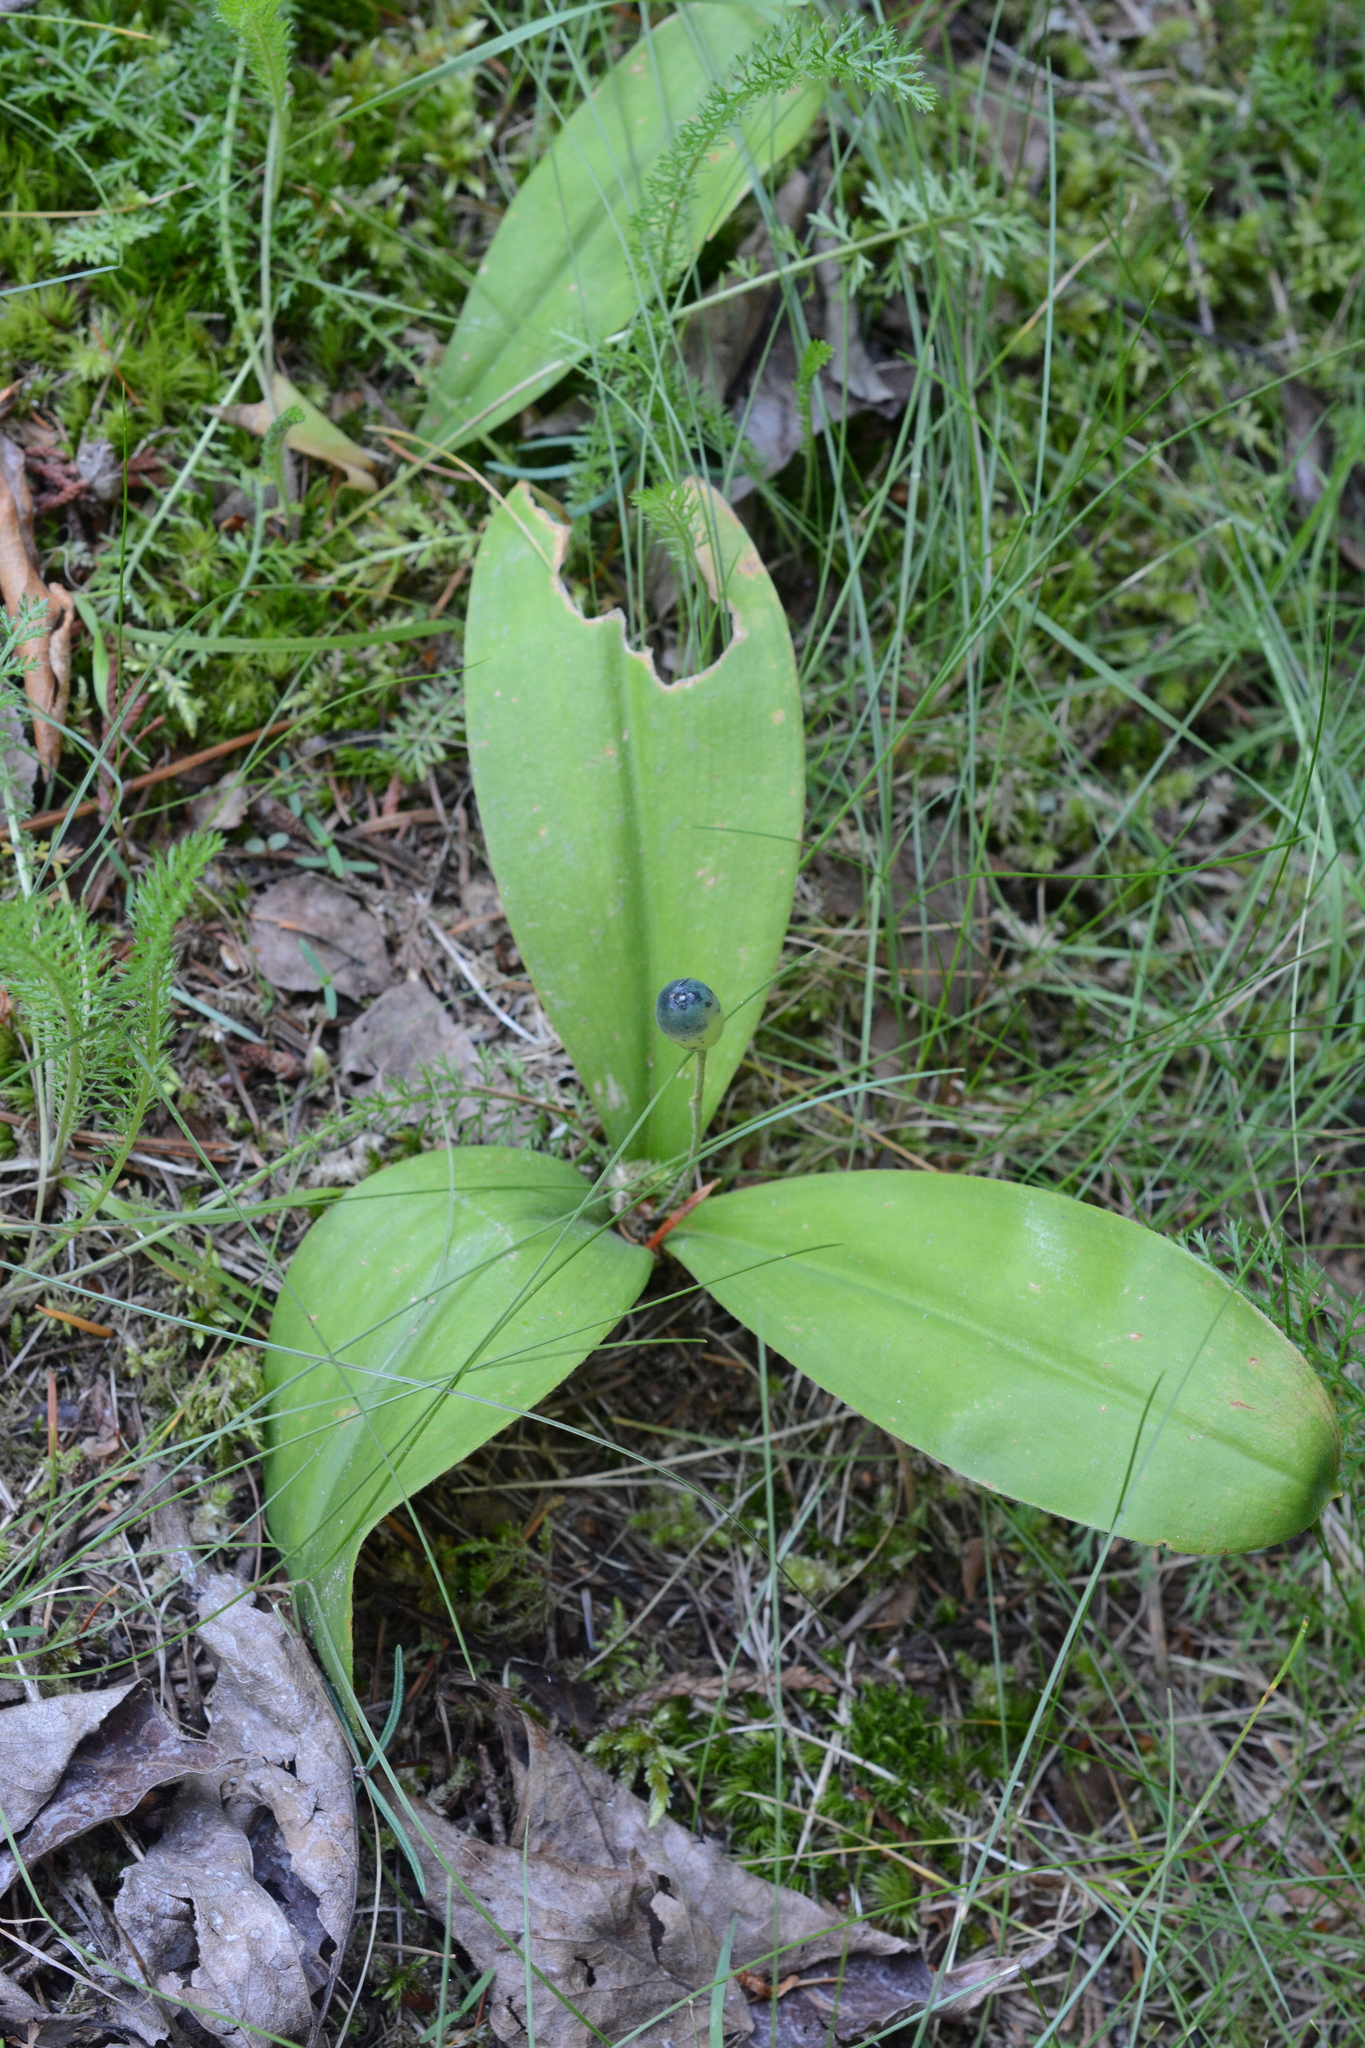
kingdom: Plantae
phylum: Tracheophyta
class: Liliopsida
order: Liliales
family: Liliaceae
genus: Clintonia
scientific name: Clintonia uniflora
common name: Queen's cup
